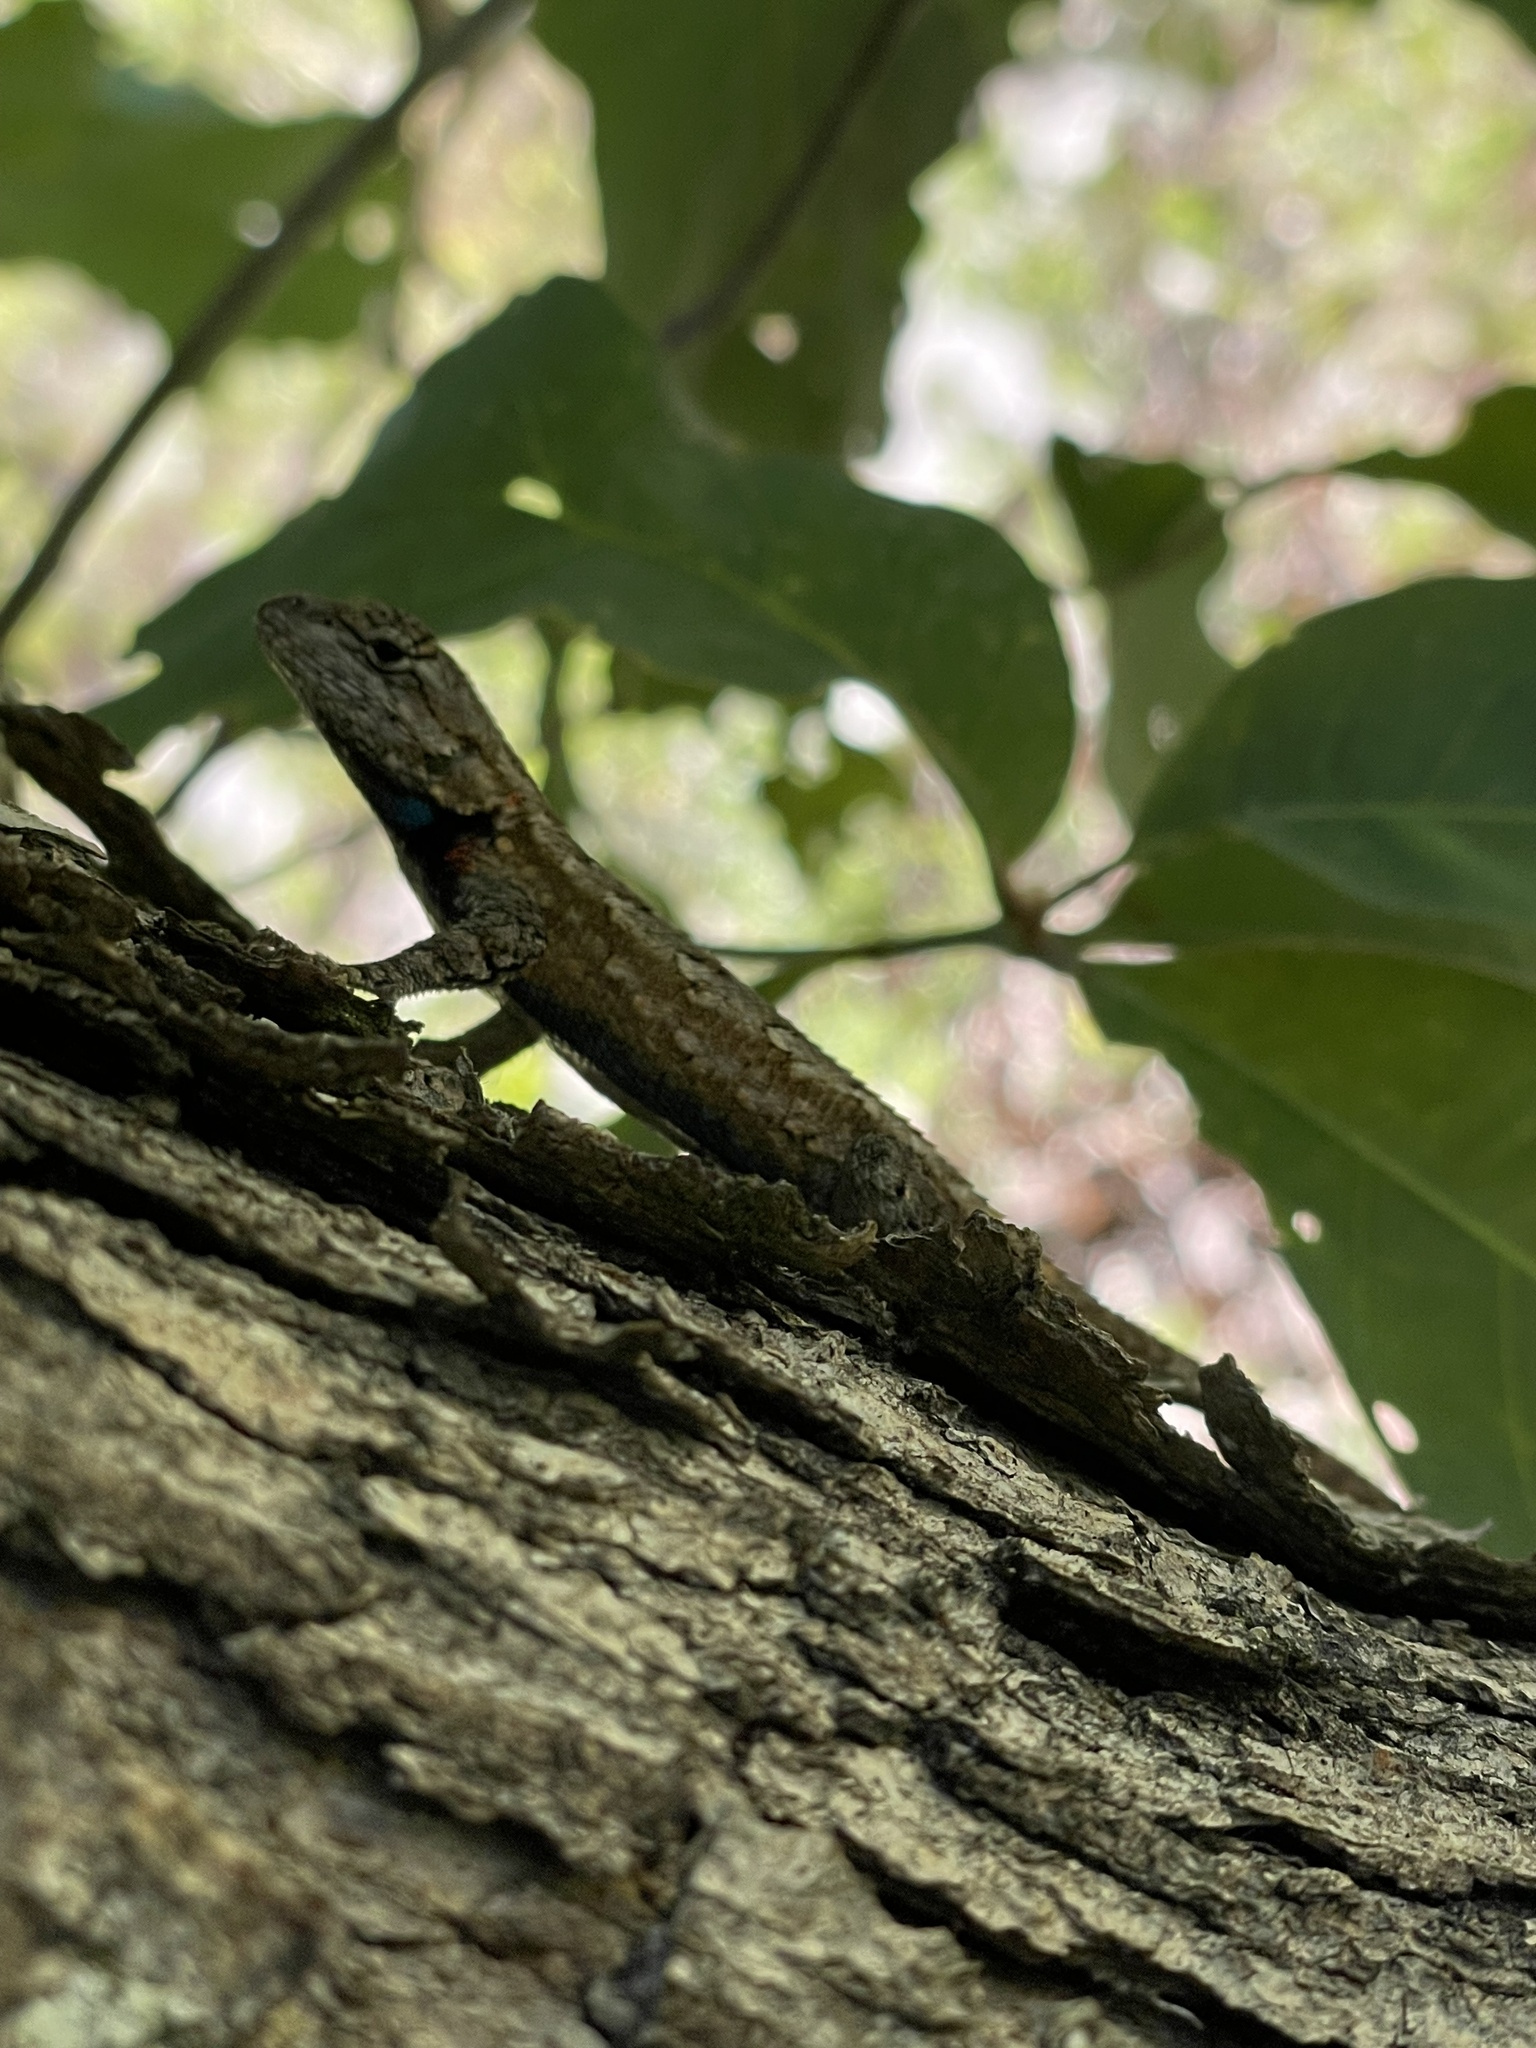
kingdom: Animalia
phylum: Chordata
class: Squamata
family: Phrynosomatidae
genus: Sceloporus
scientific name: Sceloporus undulatus
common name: Eastern fence lizard
